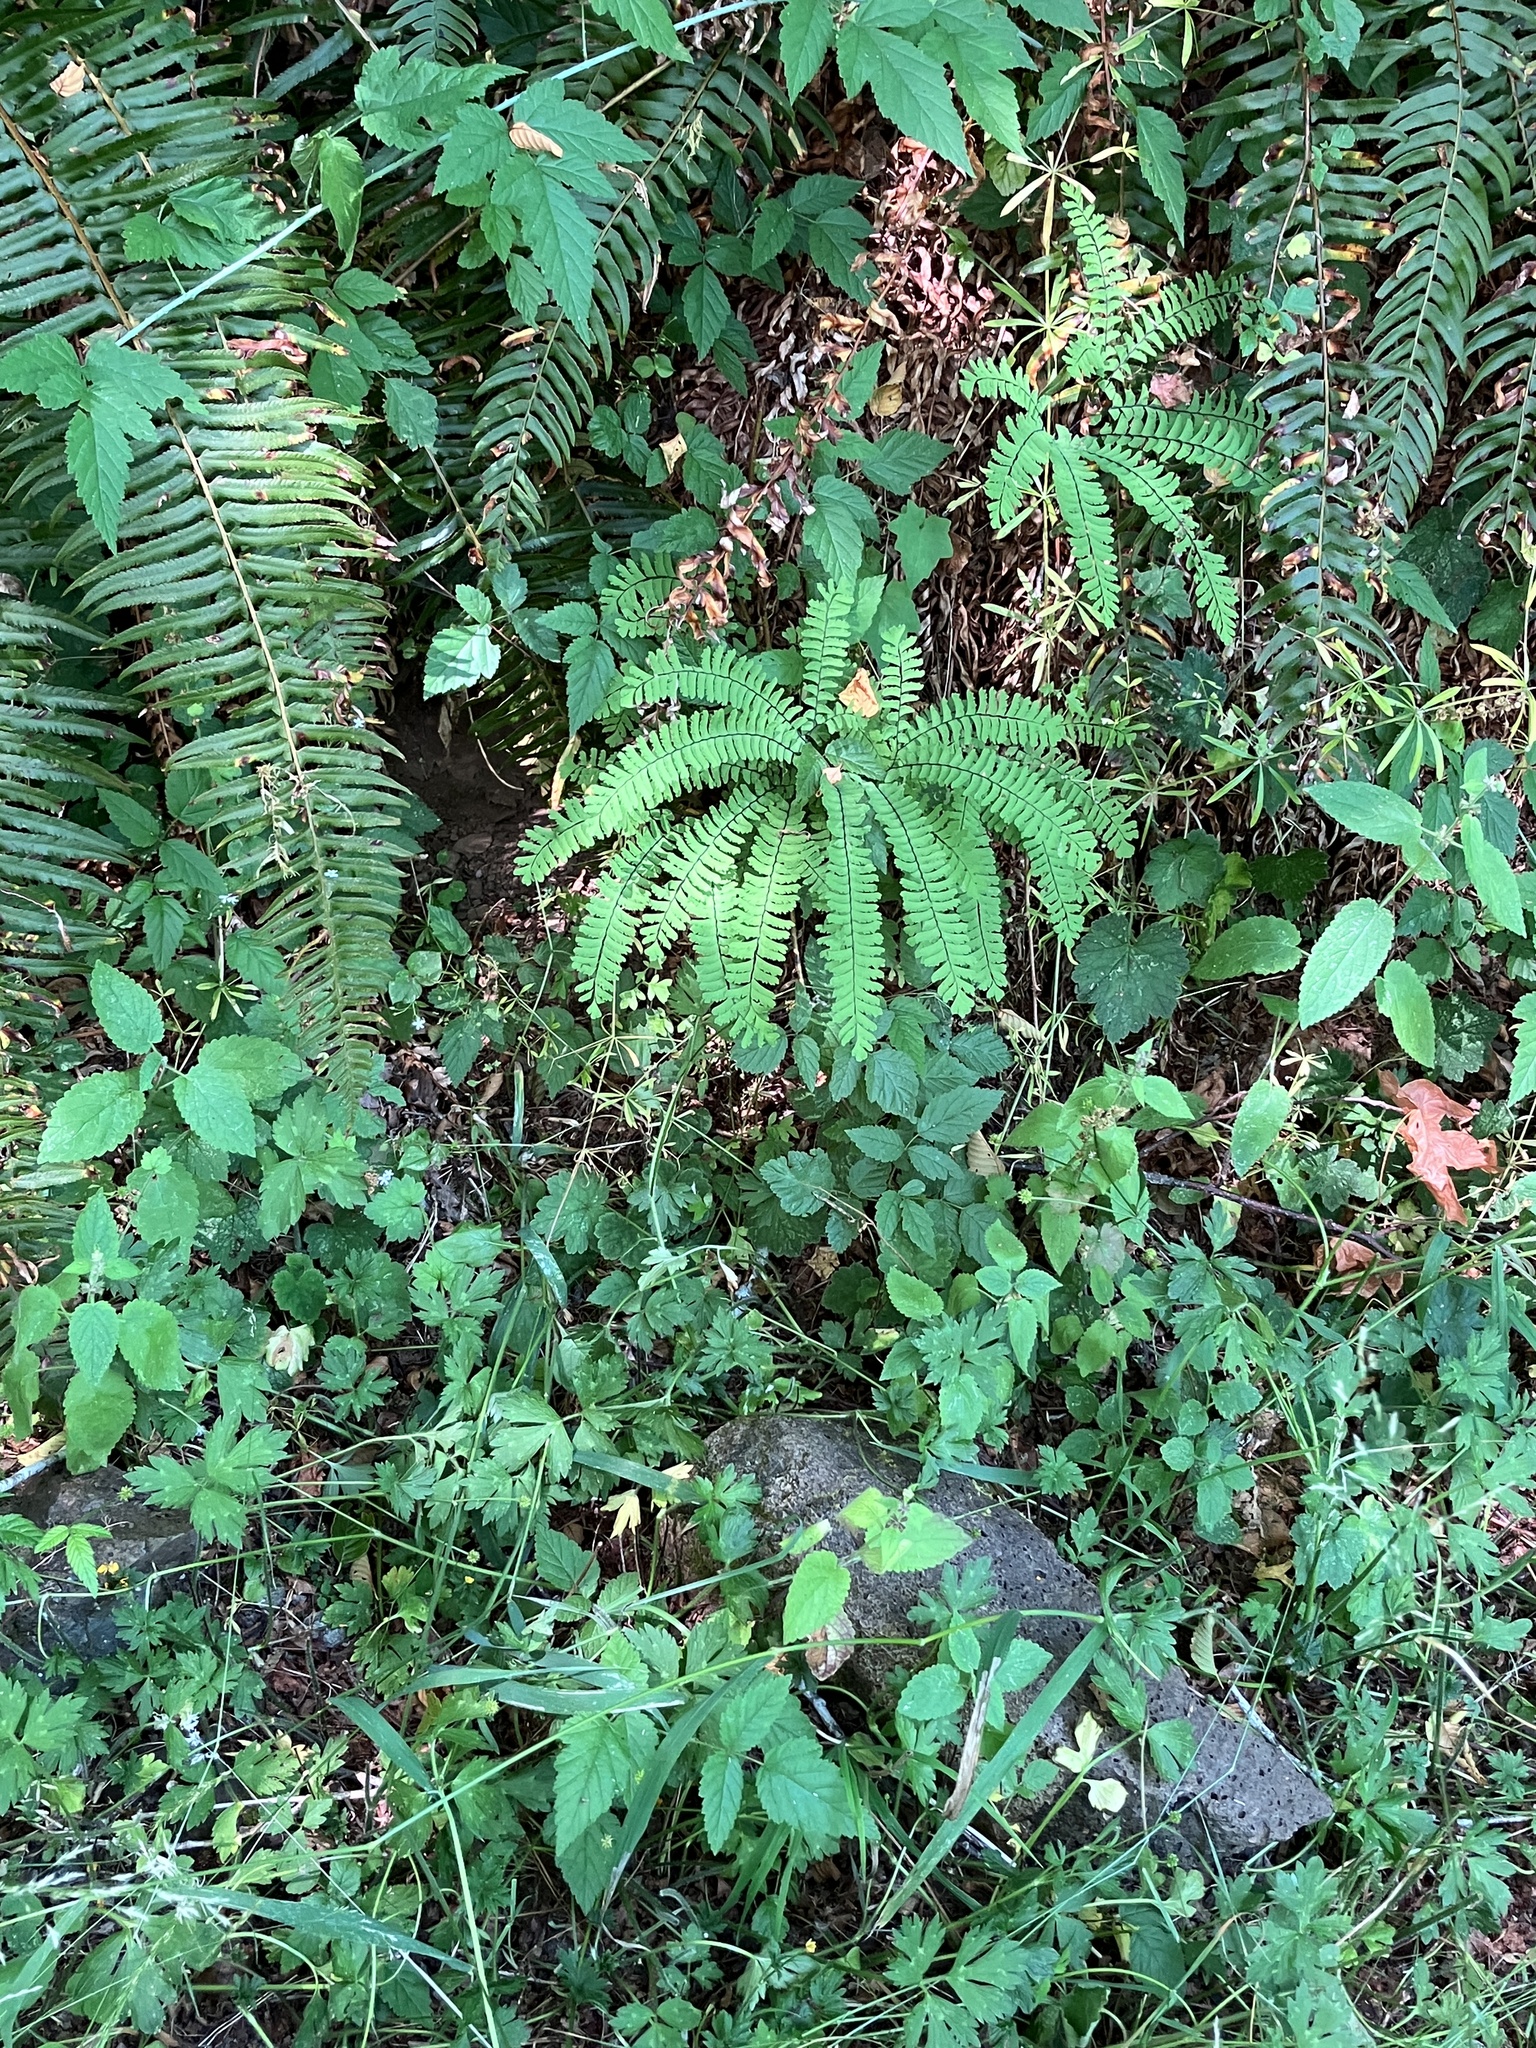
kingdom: Plantae
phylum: Tracheophyta
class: Polypodiopsida
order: Polypodiales
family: Pteridaceae
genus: Adiantum
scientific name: Adiantum aleuticum
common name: Aleutian maidenhair fern
